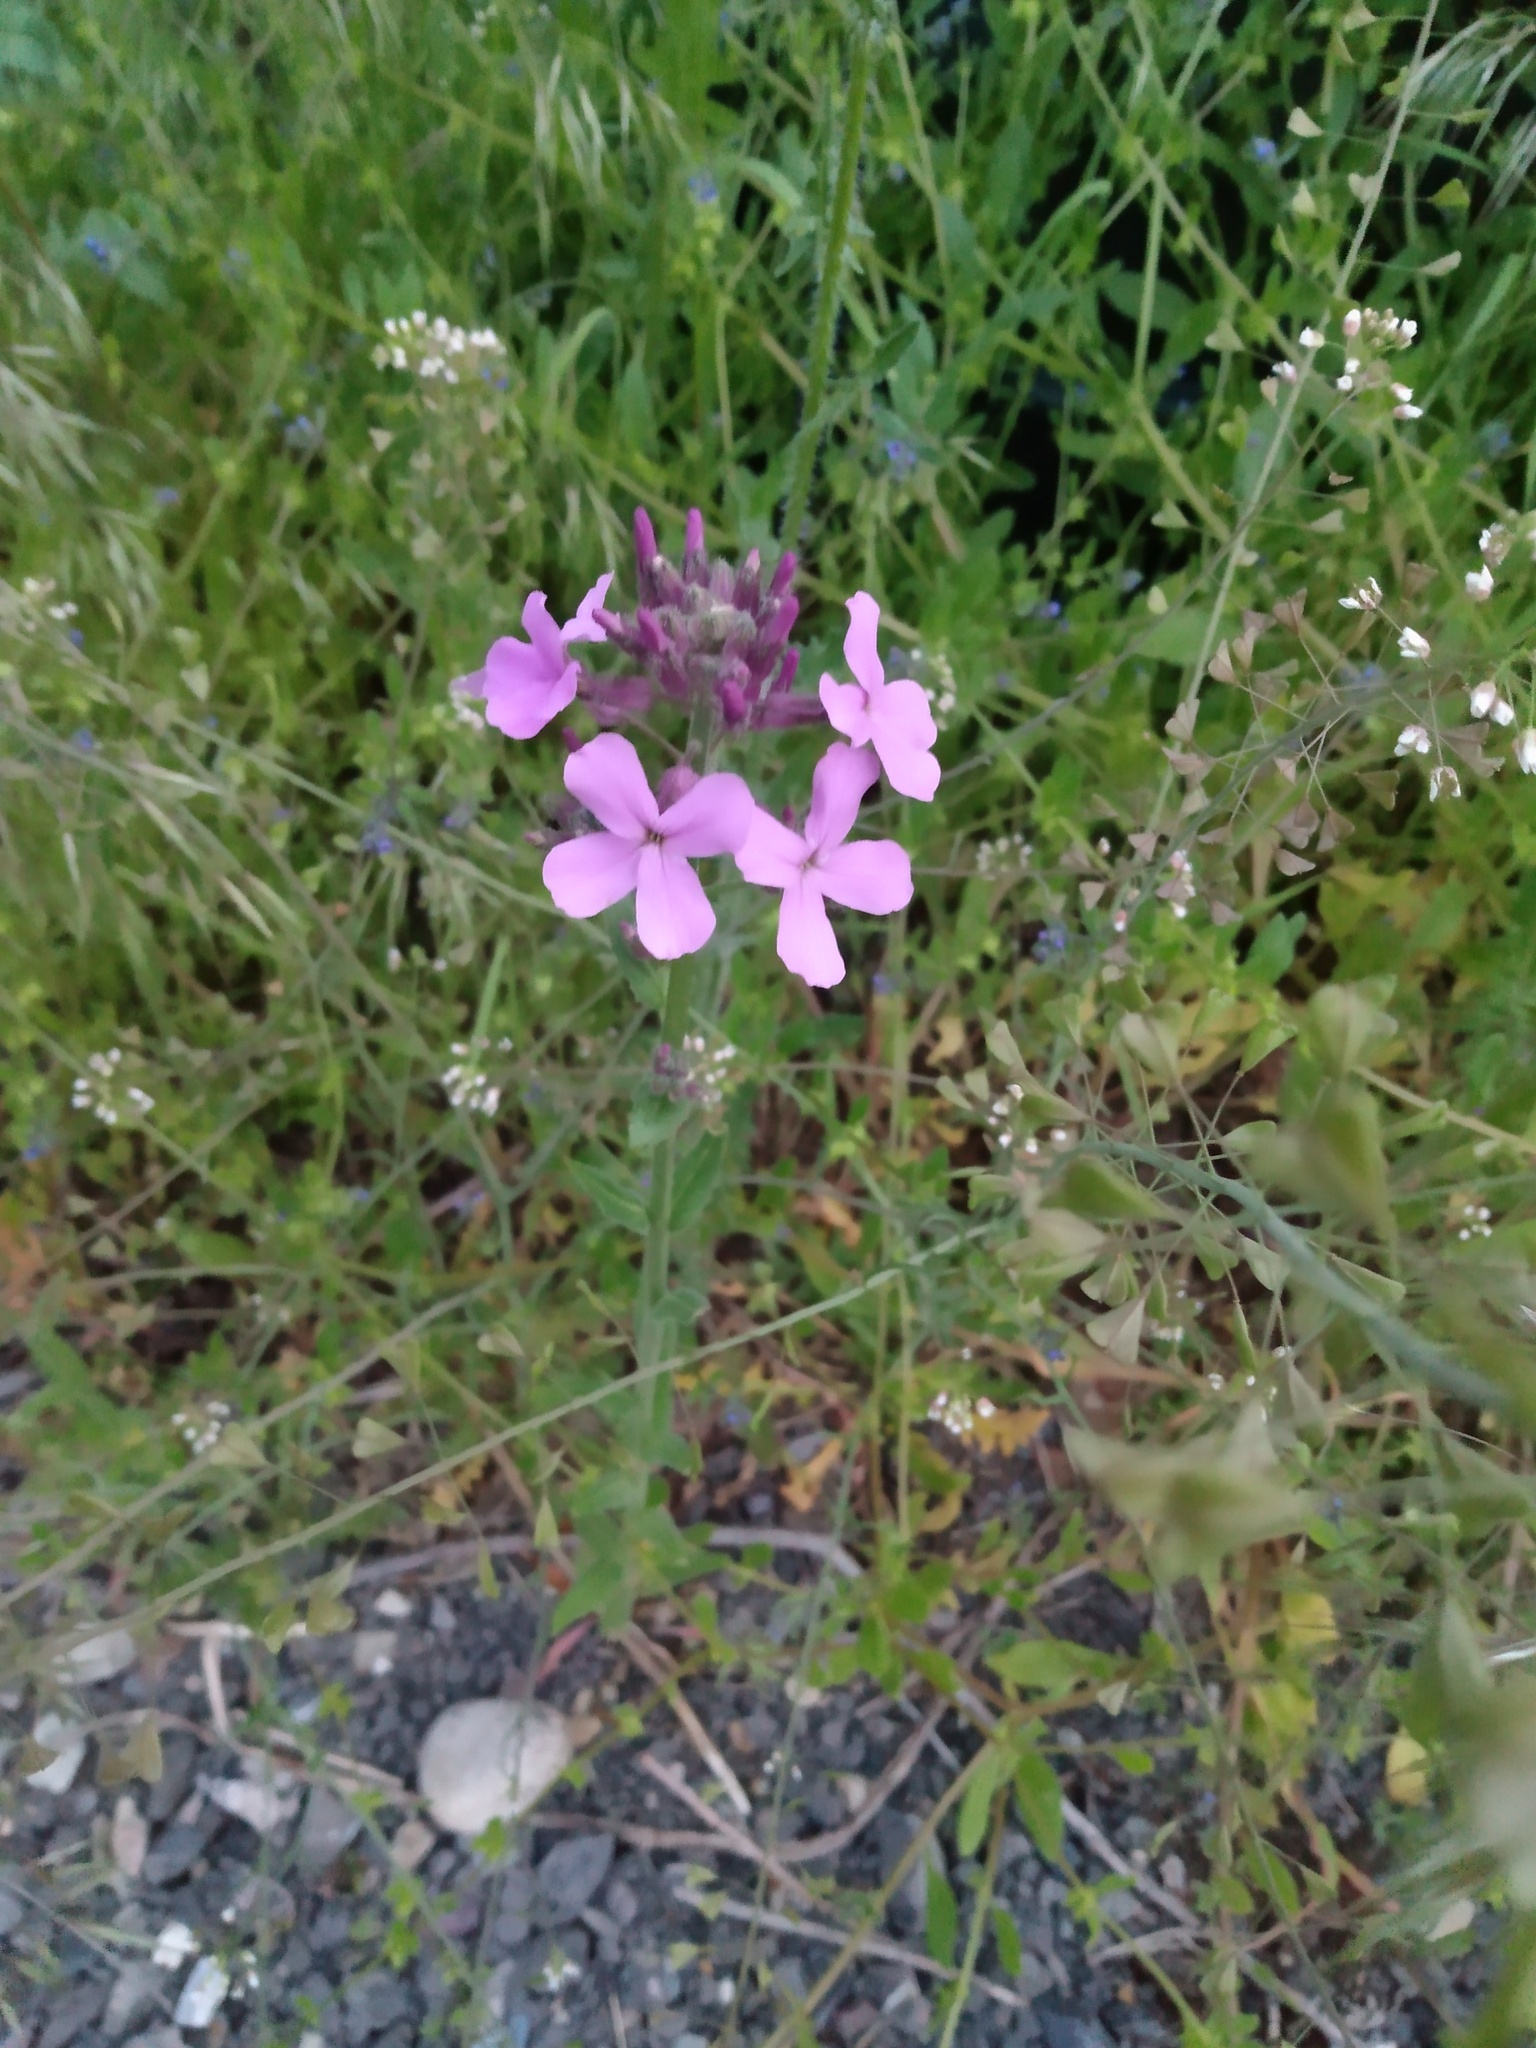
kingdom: Plantae
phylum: Tracheophyta
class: Magnoliopsida
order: Brassicales
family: Brassicaceae
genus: Hesperis
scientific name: Hesperis matronalis
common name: Dame's-violet
